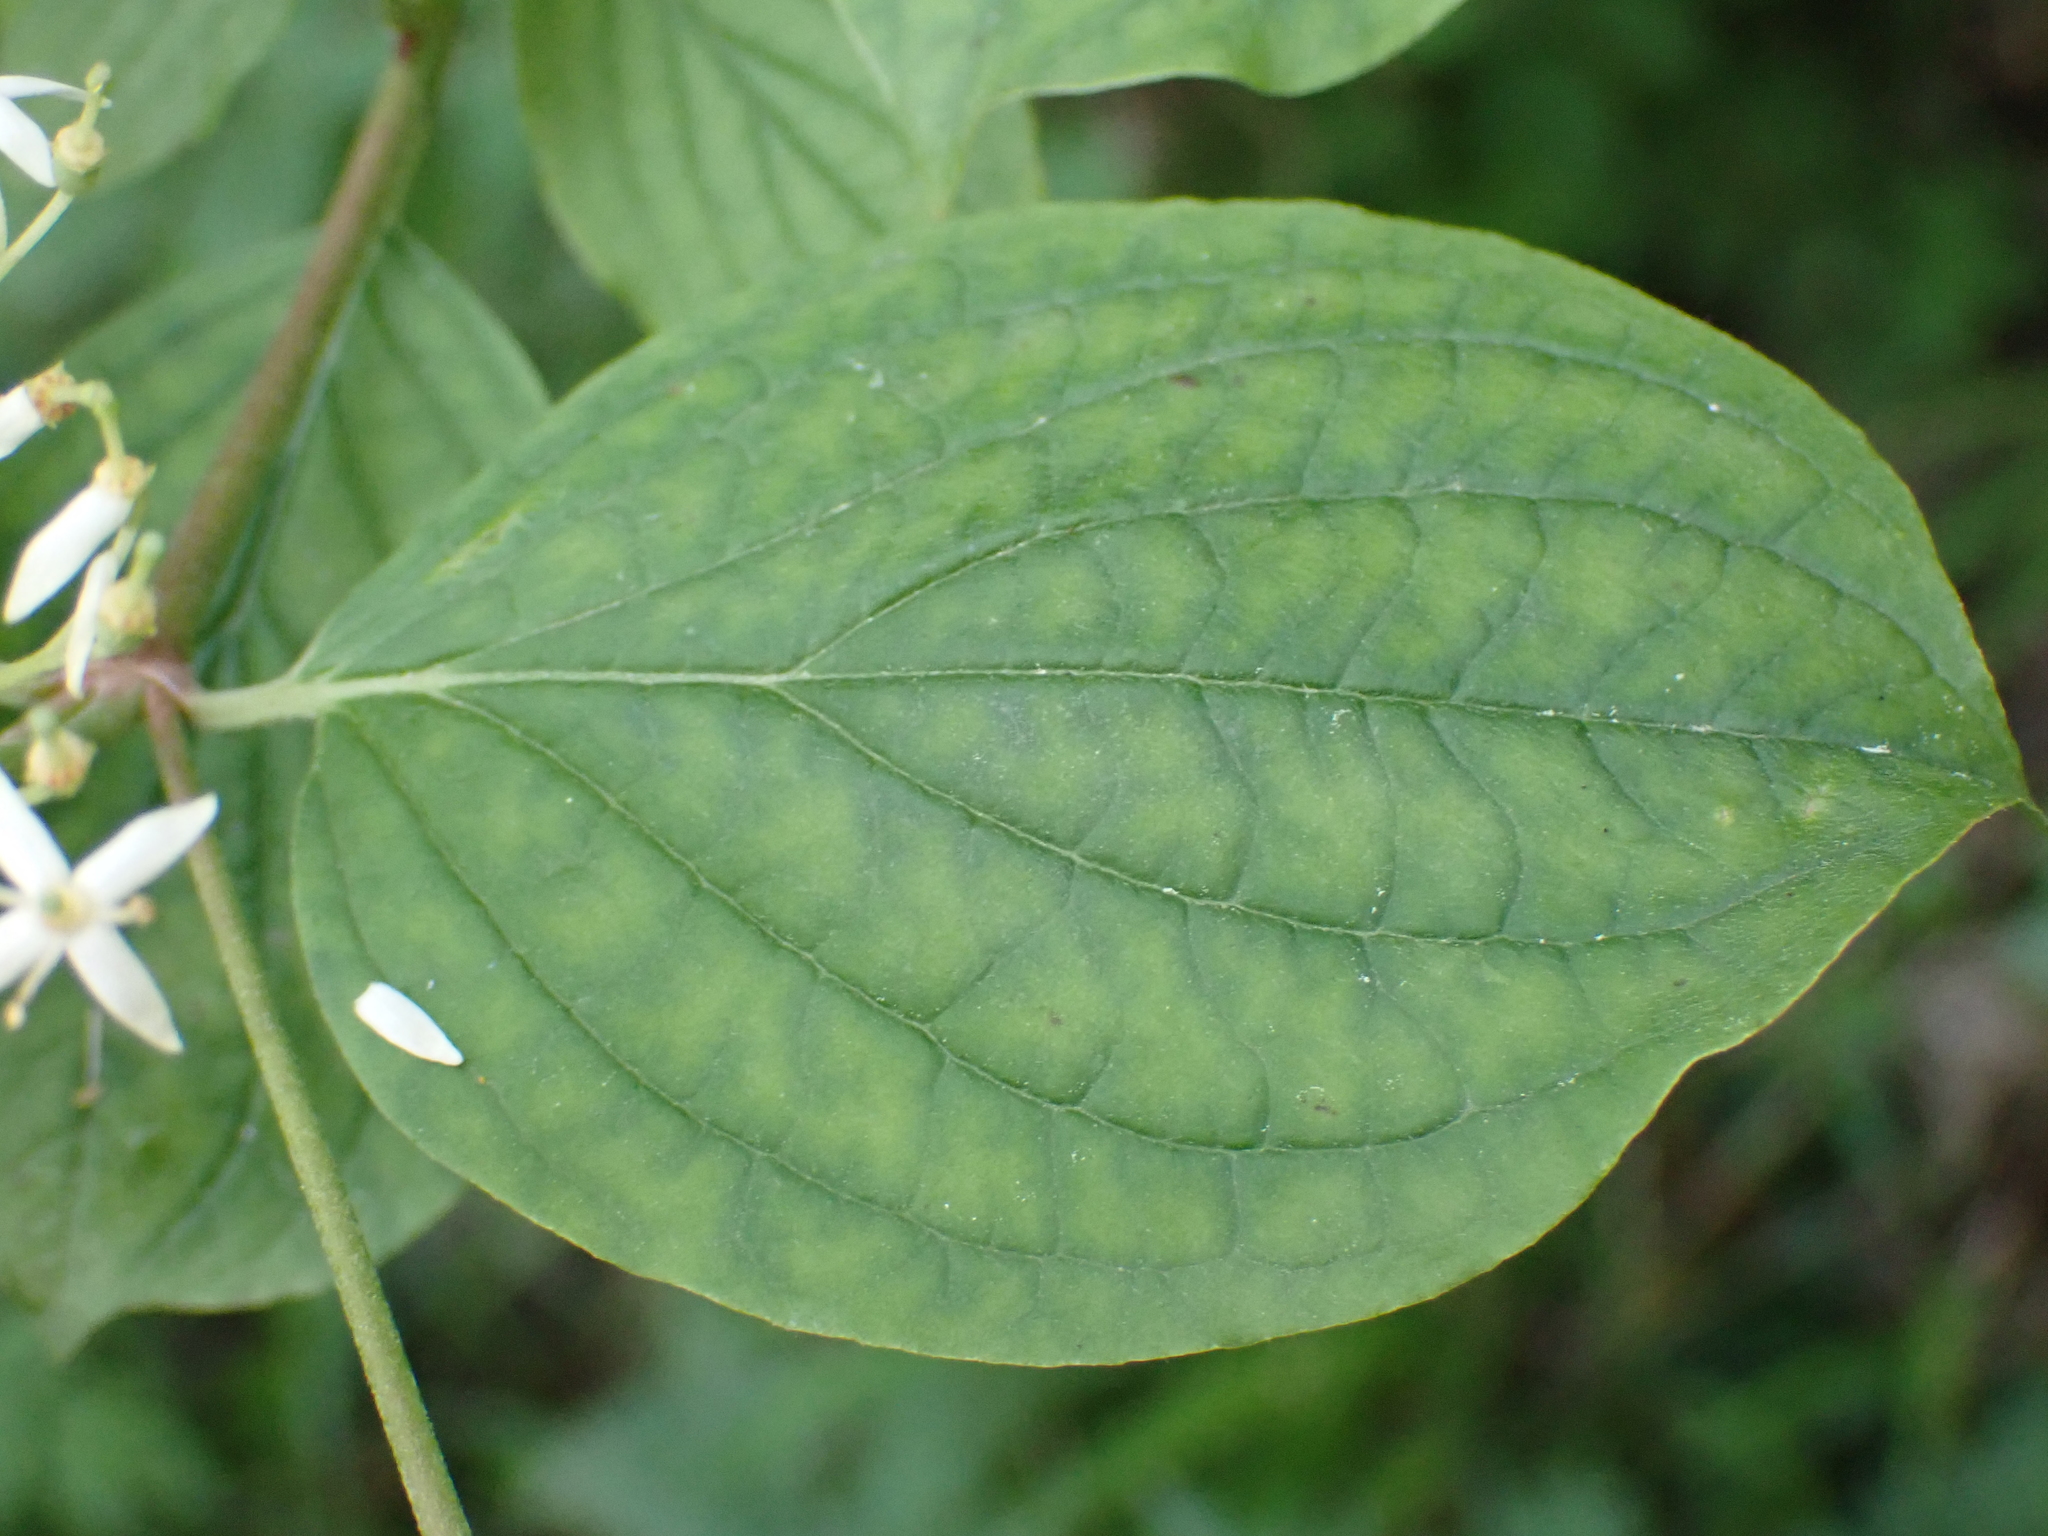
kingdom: Plantae
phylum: Tracheophyta
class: Magnoliopsida
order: Cornales
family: Cornaceae
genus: Cornus
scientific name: Cornus sanguinea
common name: Dogwood
